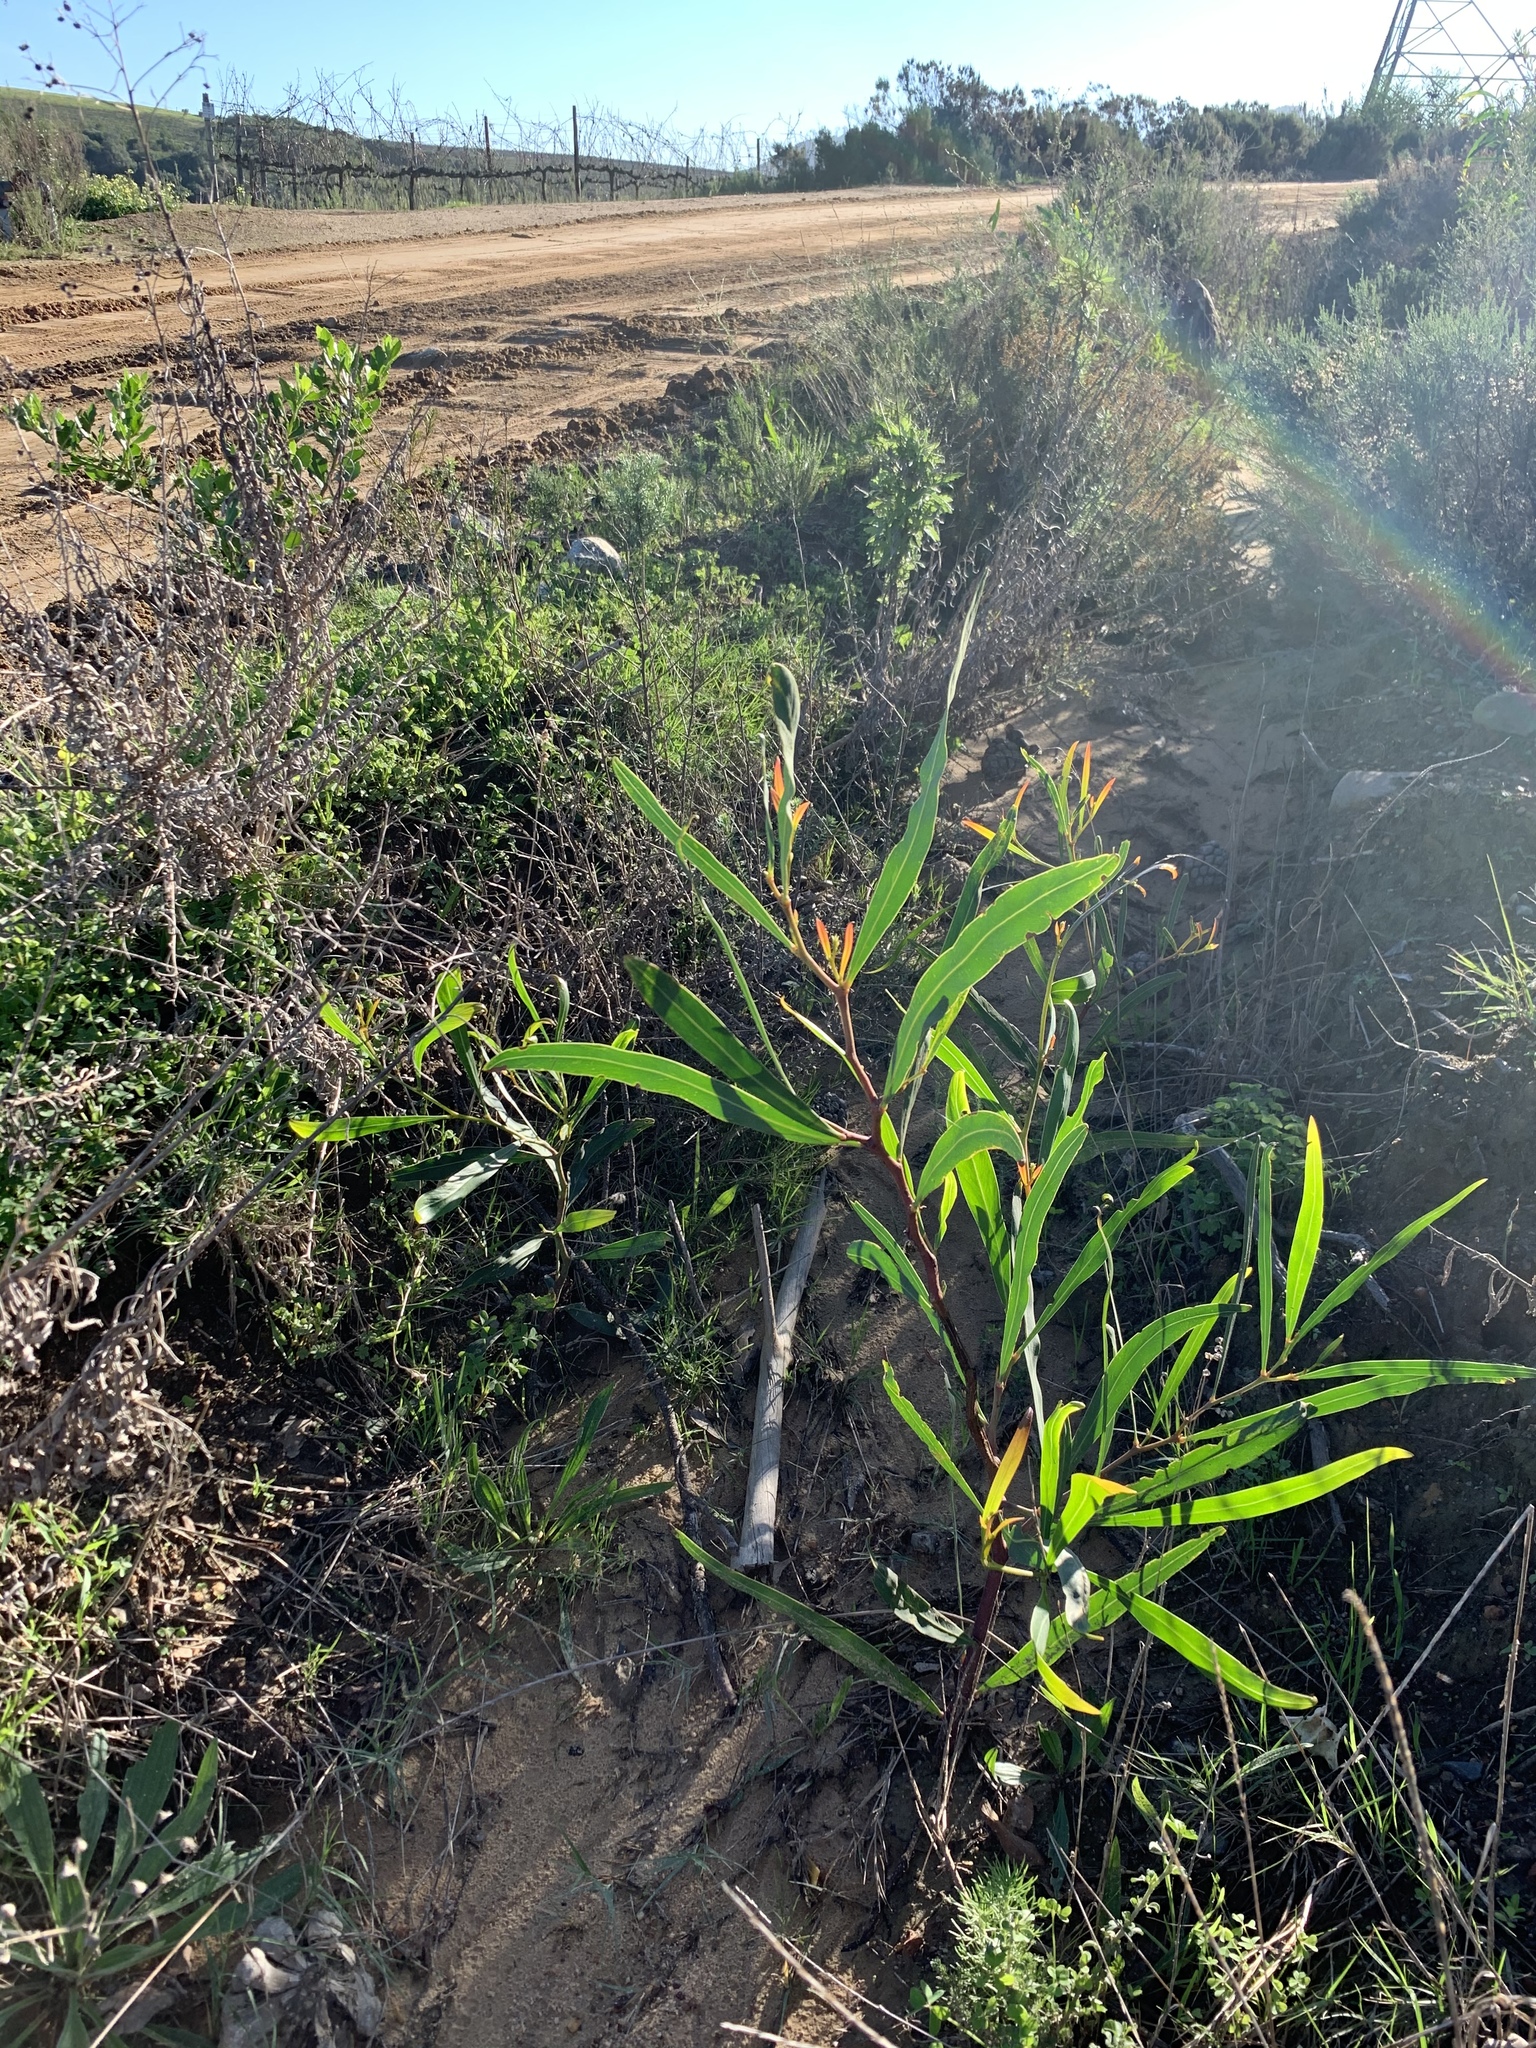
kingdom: Plantae
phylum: Tracheophyta
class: Magnoliopsida
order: Fabales
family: Fabaceae
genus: Acacia
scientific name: Acacia saligna
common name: Orange wattle
